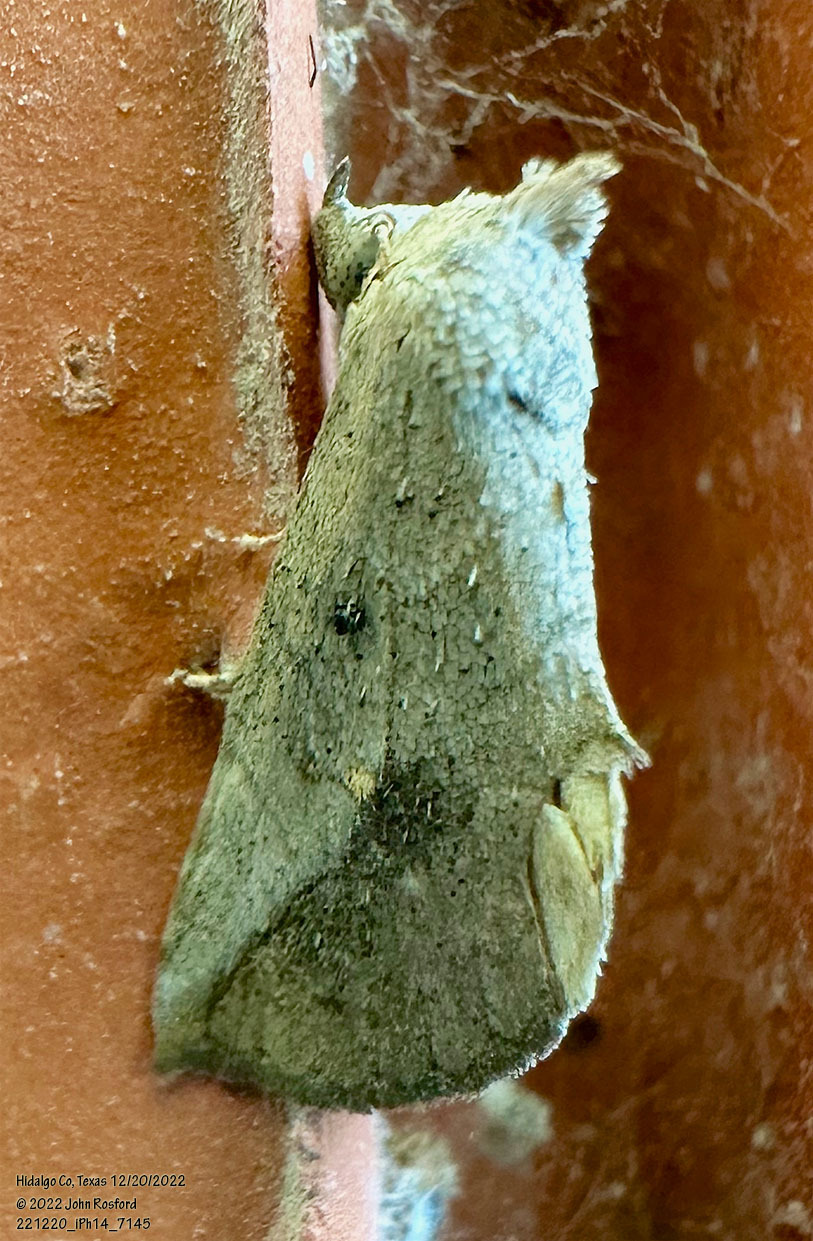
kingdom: Animalia
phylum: Arthropoda
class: Insecta
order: Lepidoptera
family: Erebidae
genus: Isogona
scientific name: Isogona snowi
